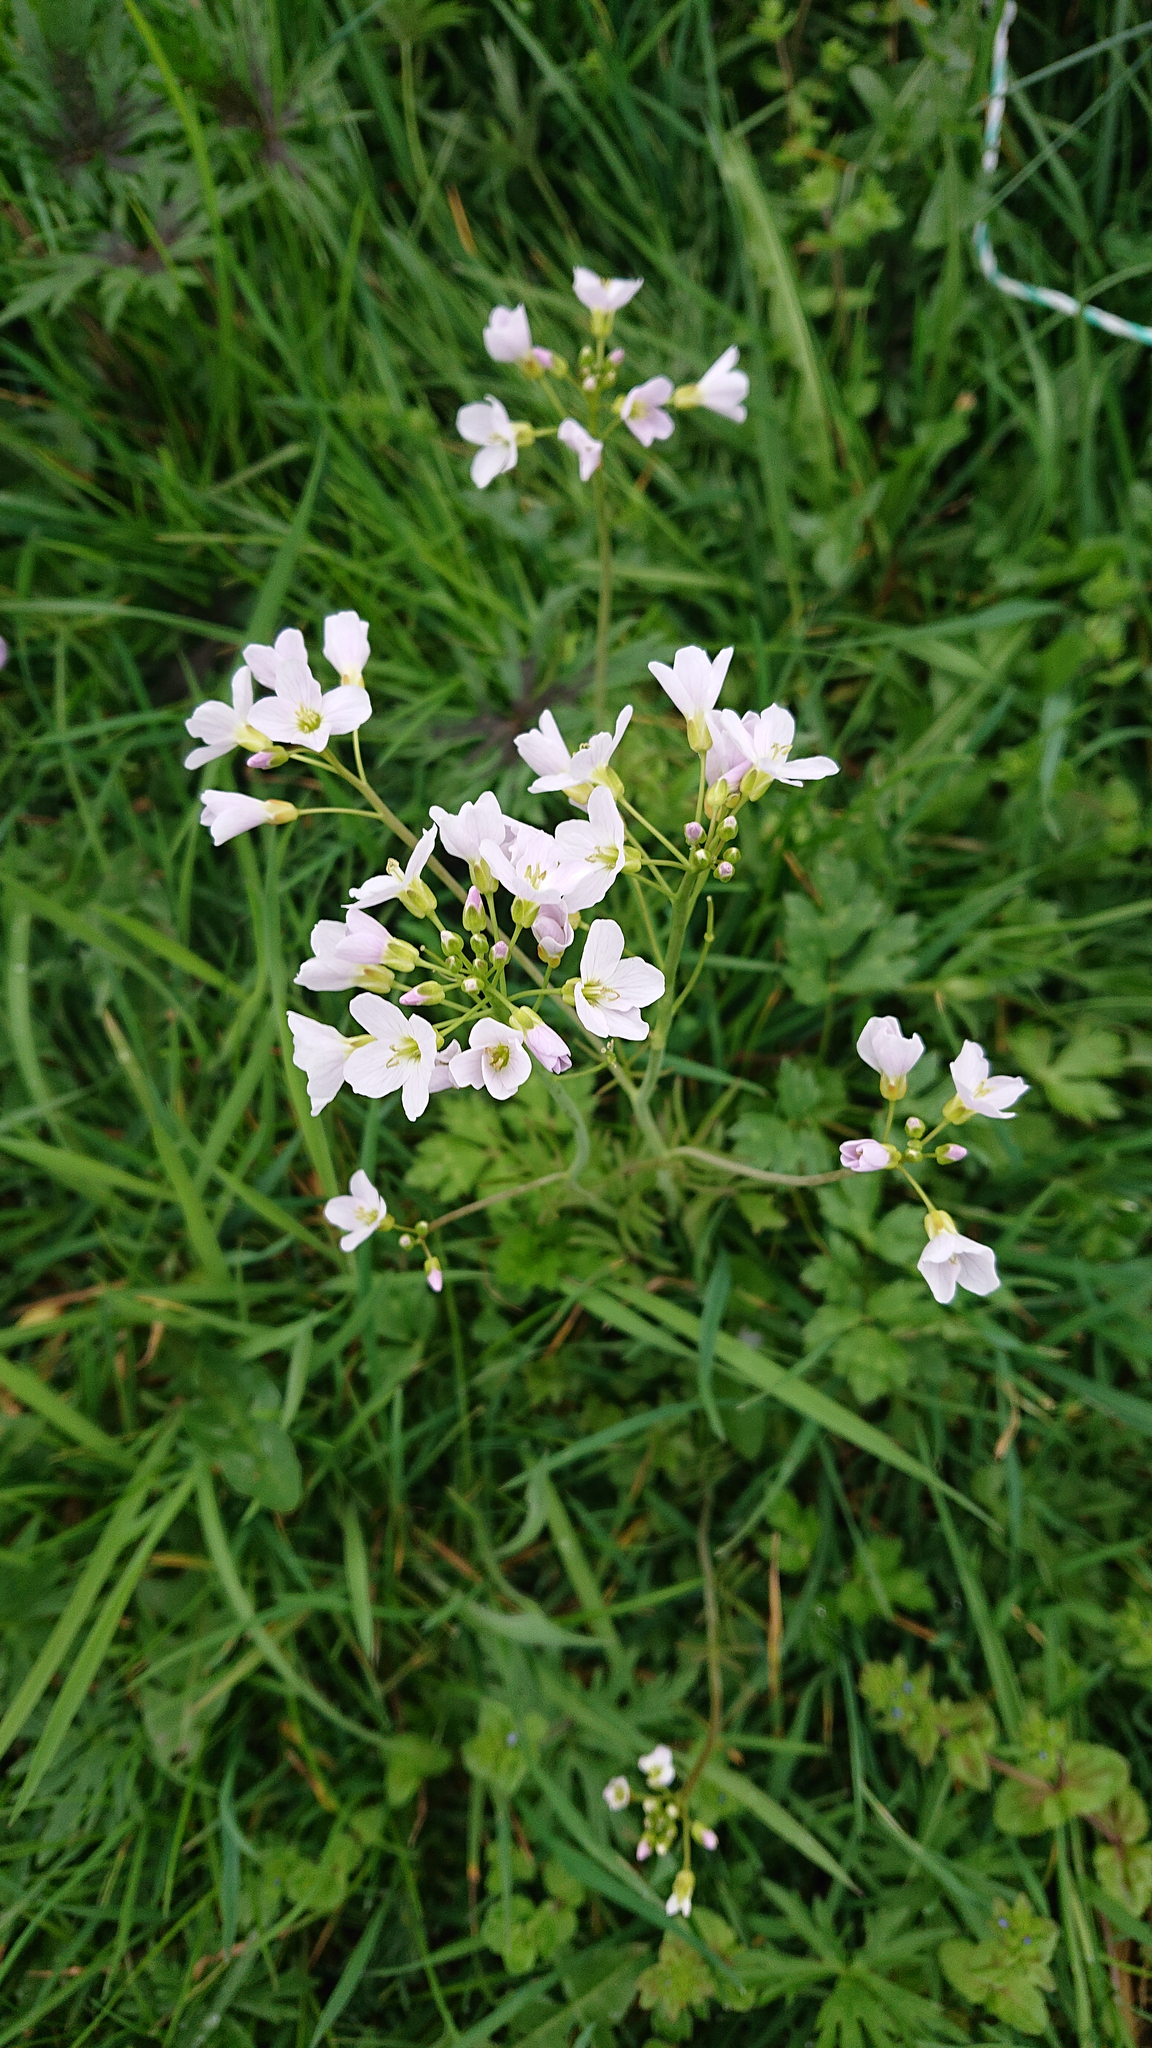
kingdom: Plantae
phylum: Tracheophyta
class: Magnoliopsida
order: Brassicales
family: Brassicaceae
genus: Cardamine
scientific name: Cardamine pratensis
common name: Cuckoo flower
